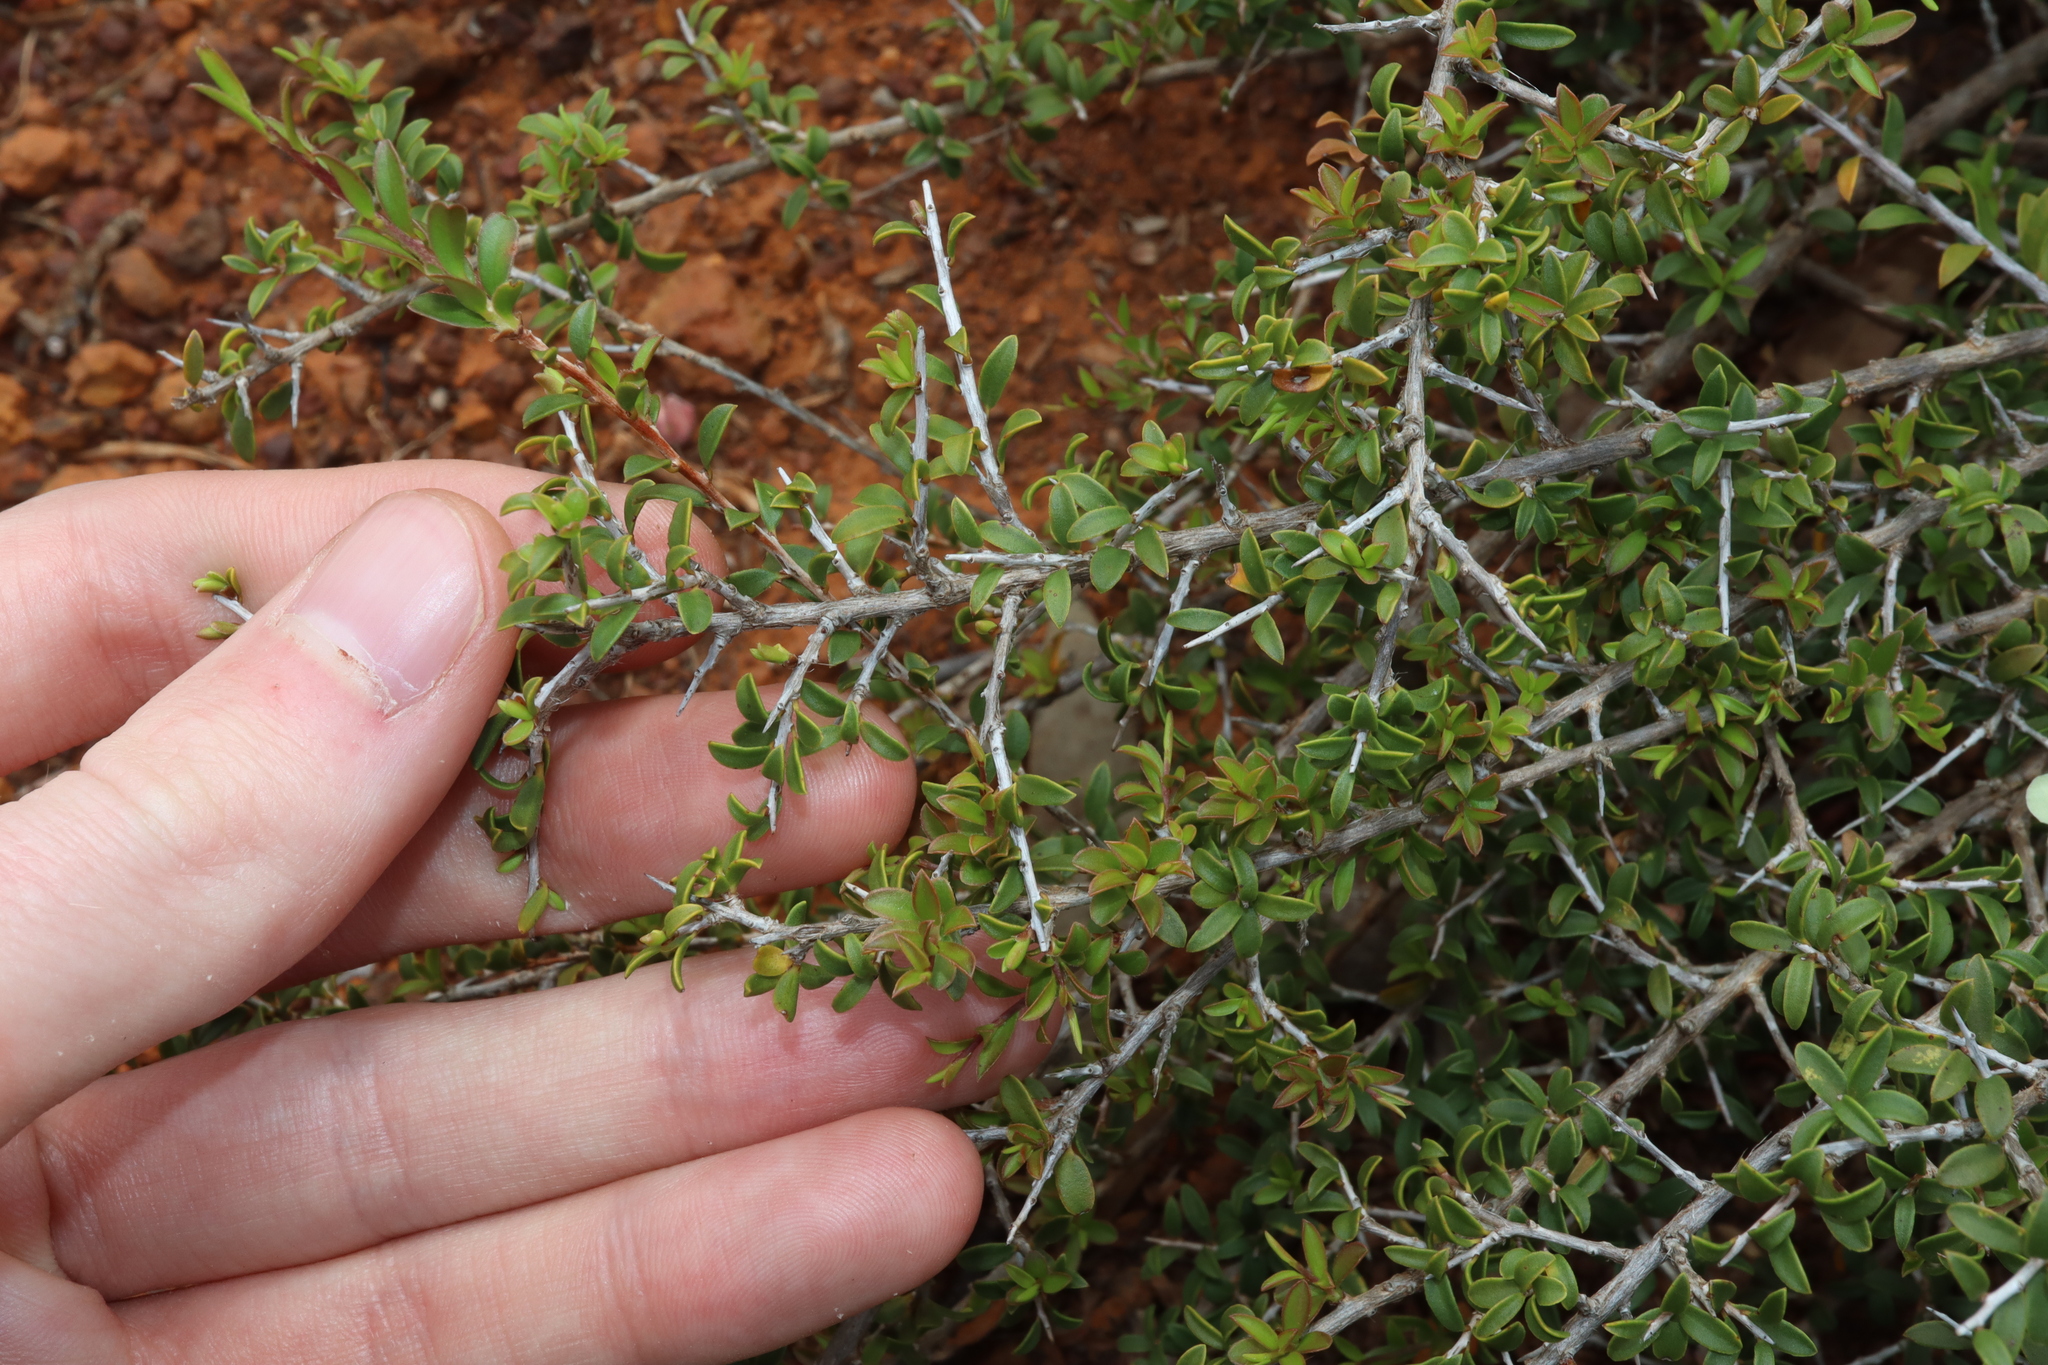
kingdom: Plantae
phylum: Tracheophyta
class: Magnoliopsida
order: Myrtales
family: Myrtaceae
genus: Leptospermum
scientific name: Leptospermum spinescens
